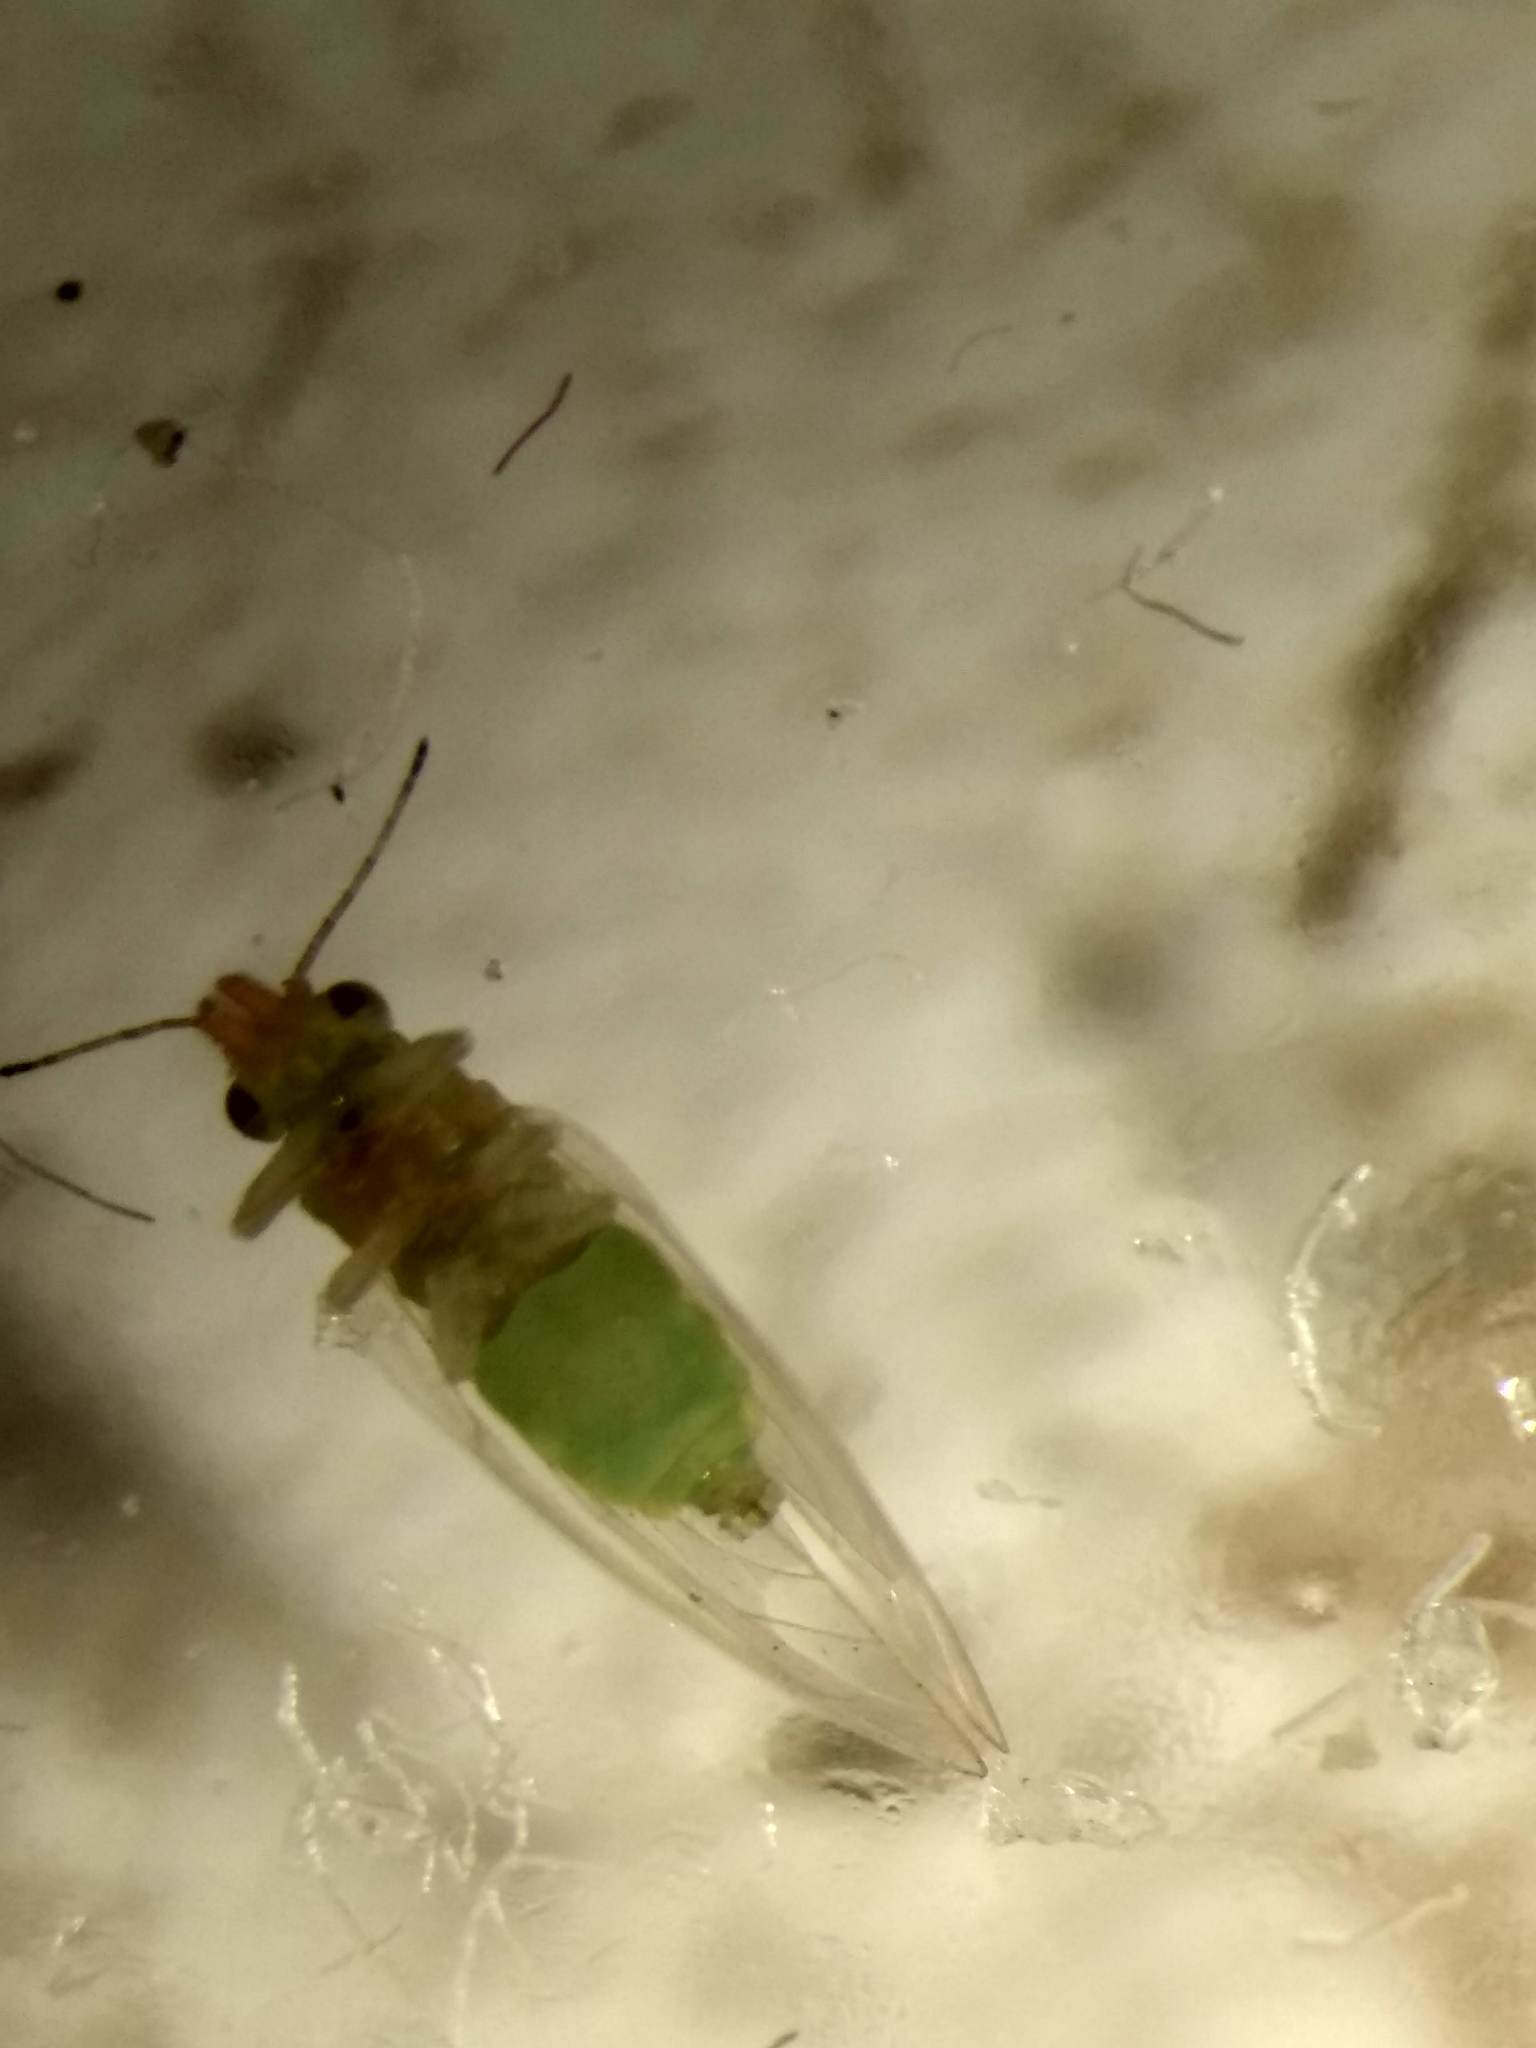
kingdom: Animalia
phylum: Arthropoda
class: Insecta
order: Hemiptera
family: Aphalaridae
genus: Glycaspis
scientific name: Glycaspis brimblecombei
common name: Red gum lerp psyllid
